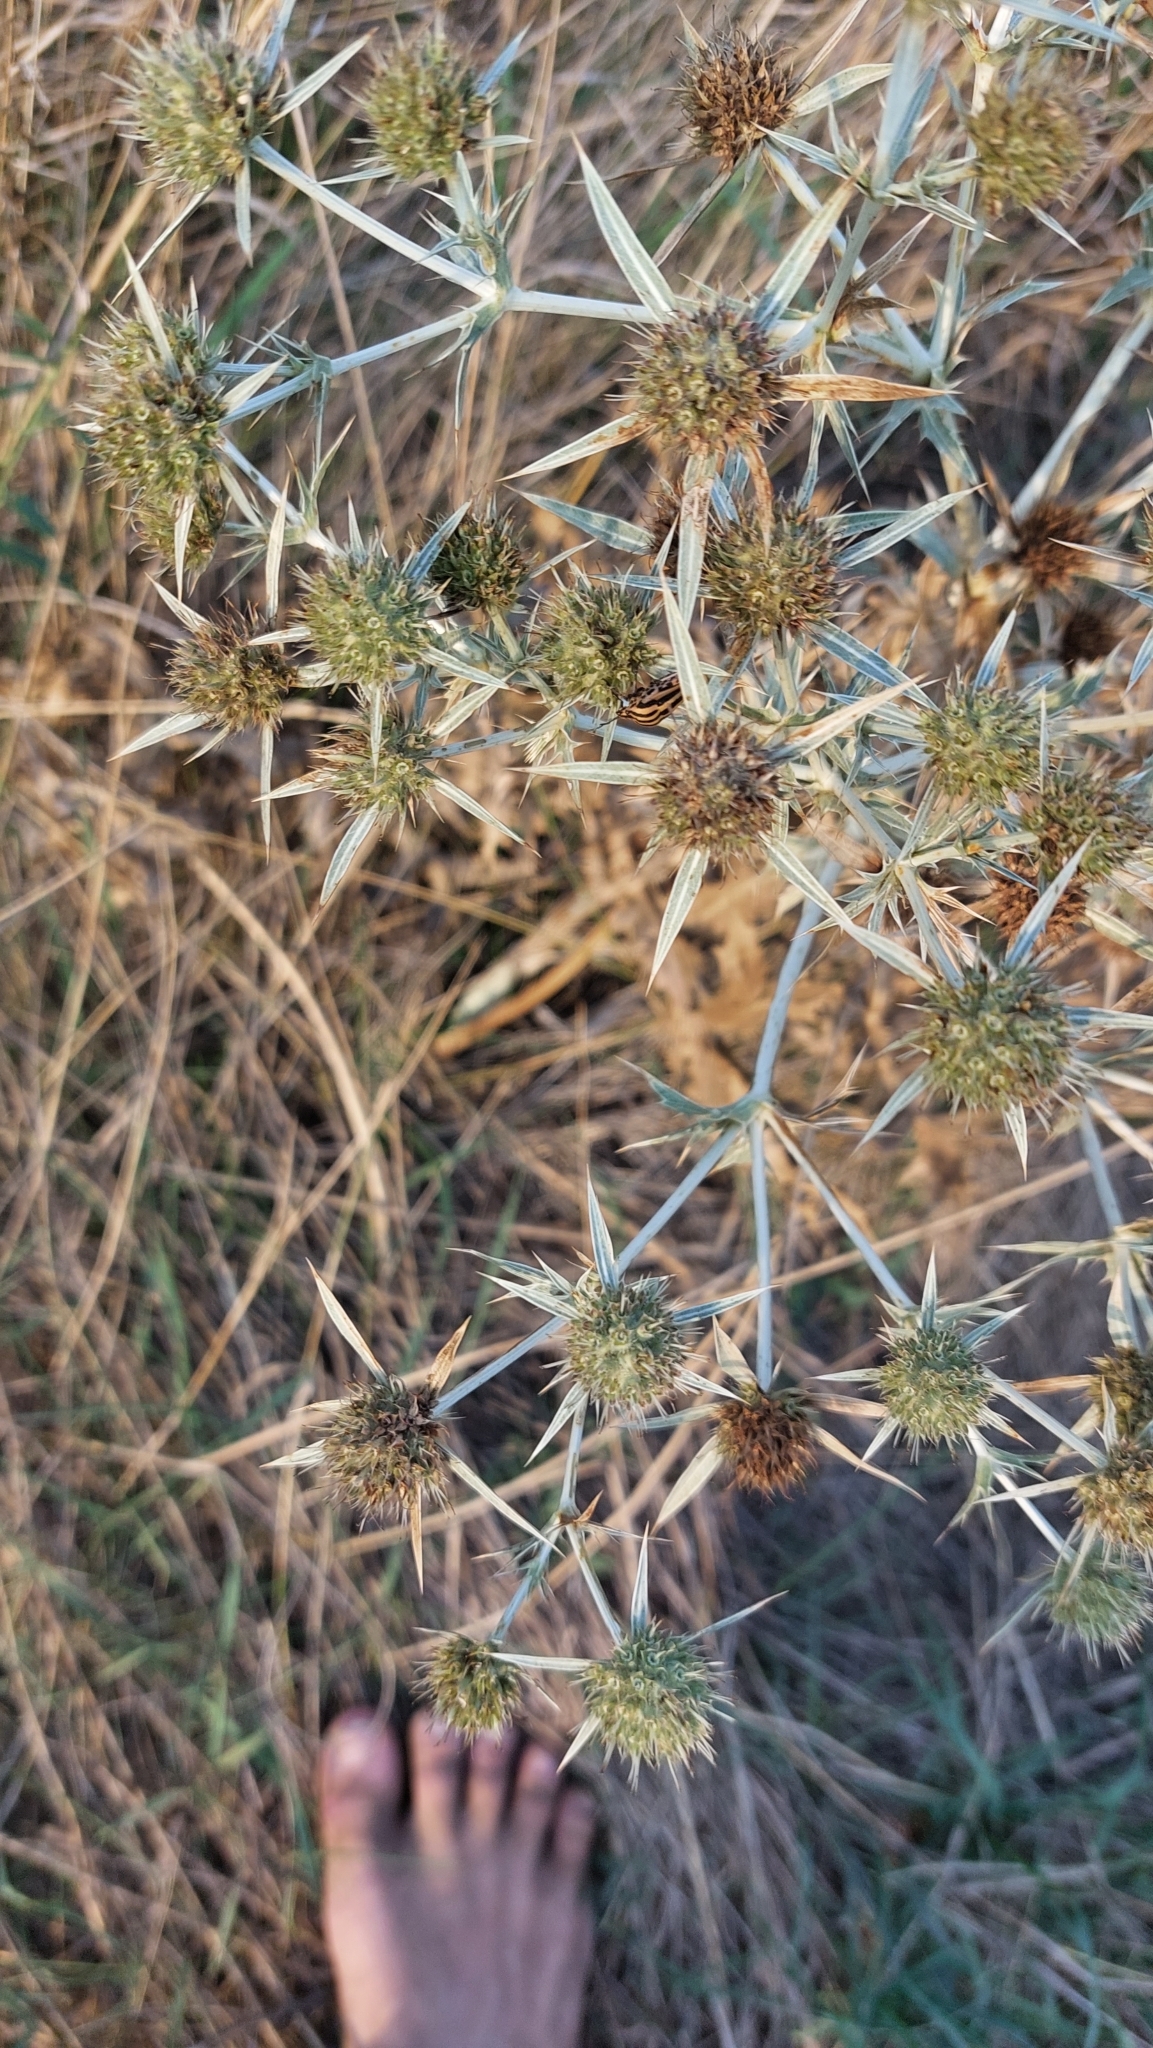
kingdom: Plantae
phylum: Tracheophyta
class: Magnoliopsida
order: Apiales
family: Apiaceae
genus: Eryngium
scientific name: Eryngium campestre
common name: Field eryngo
